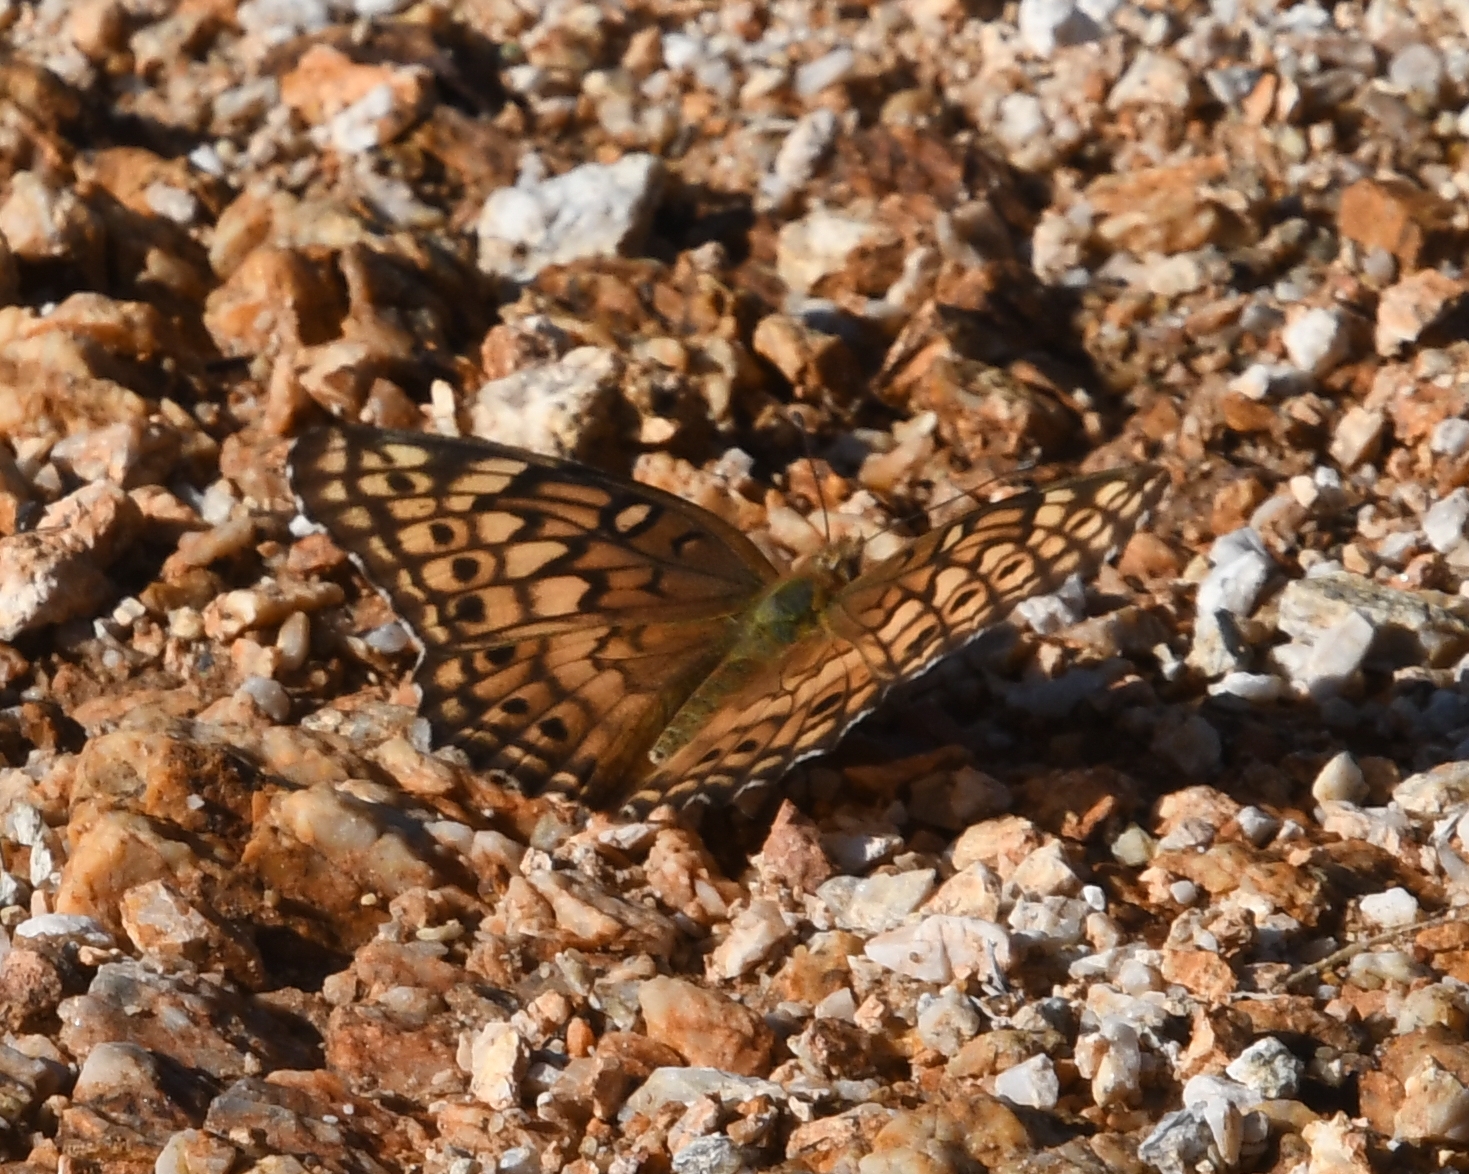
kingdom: Animalia
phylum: Arthropoda
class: Insecta
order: Lepidoptera
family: Nymphalidae
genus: Euptoieta
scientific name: Euptoieta claudia
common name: Variegated fritillary
